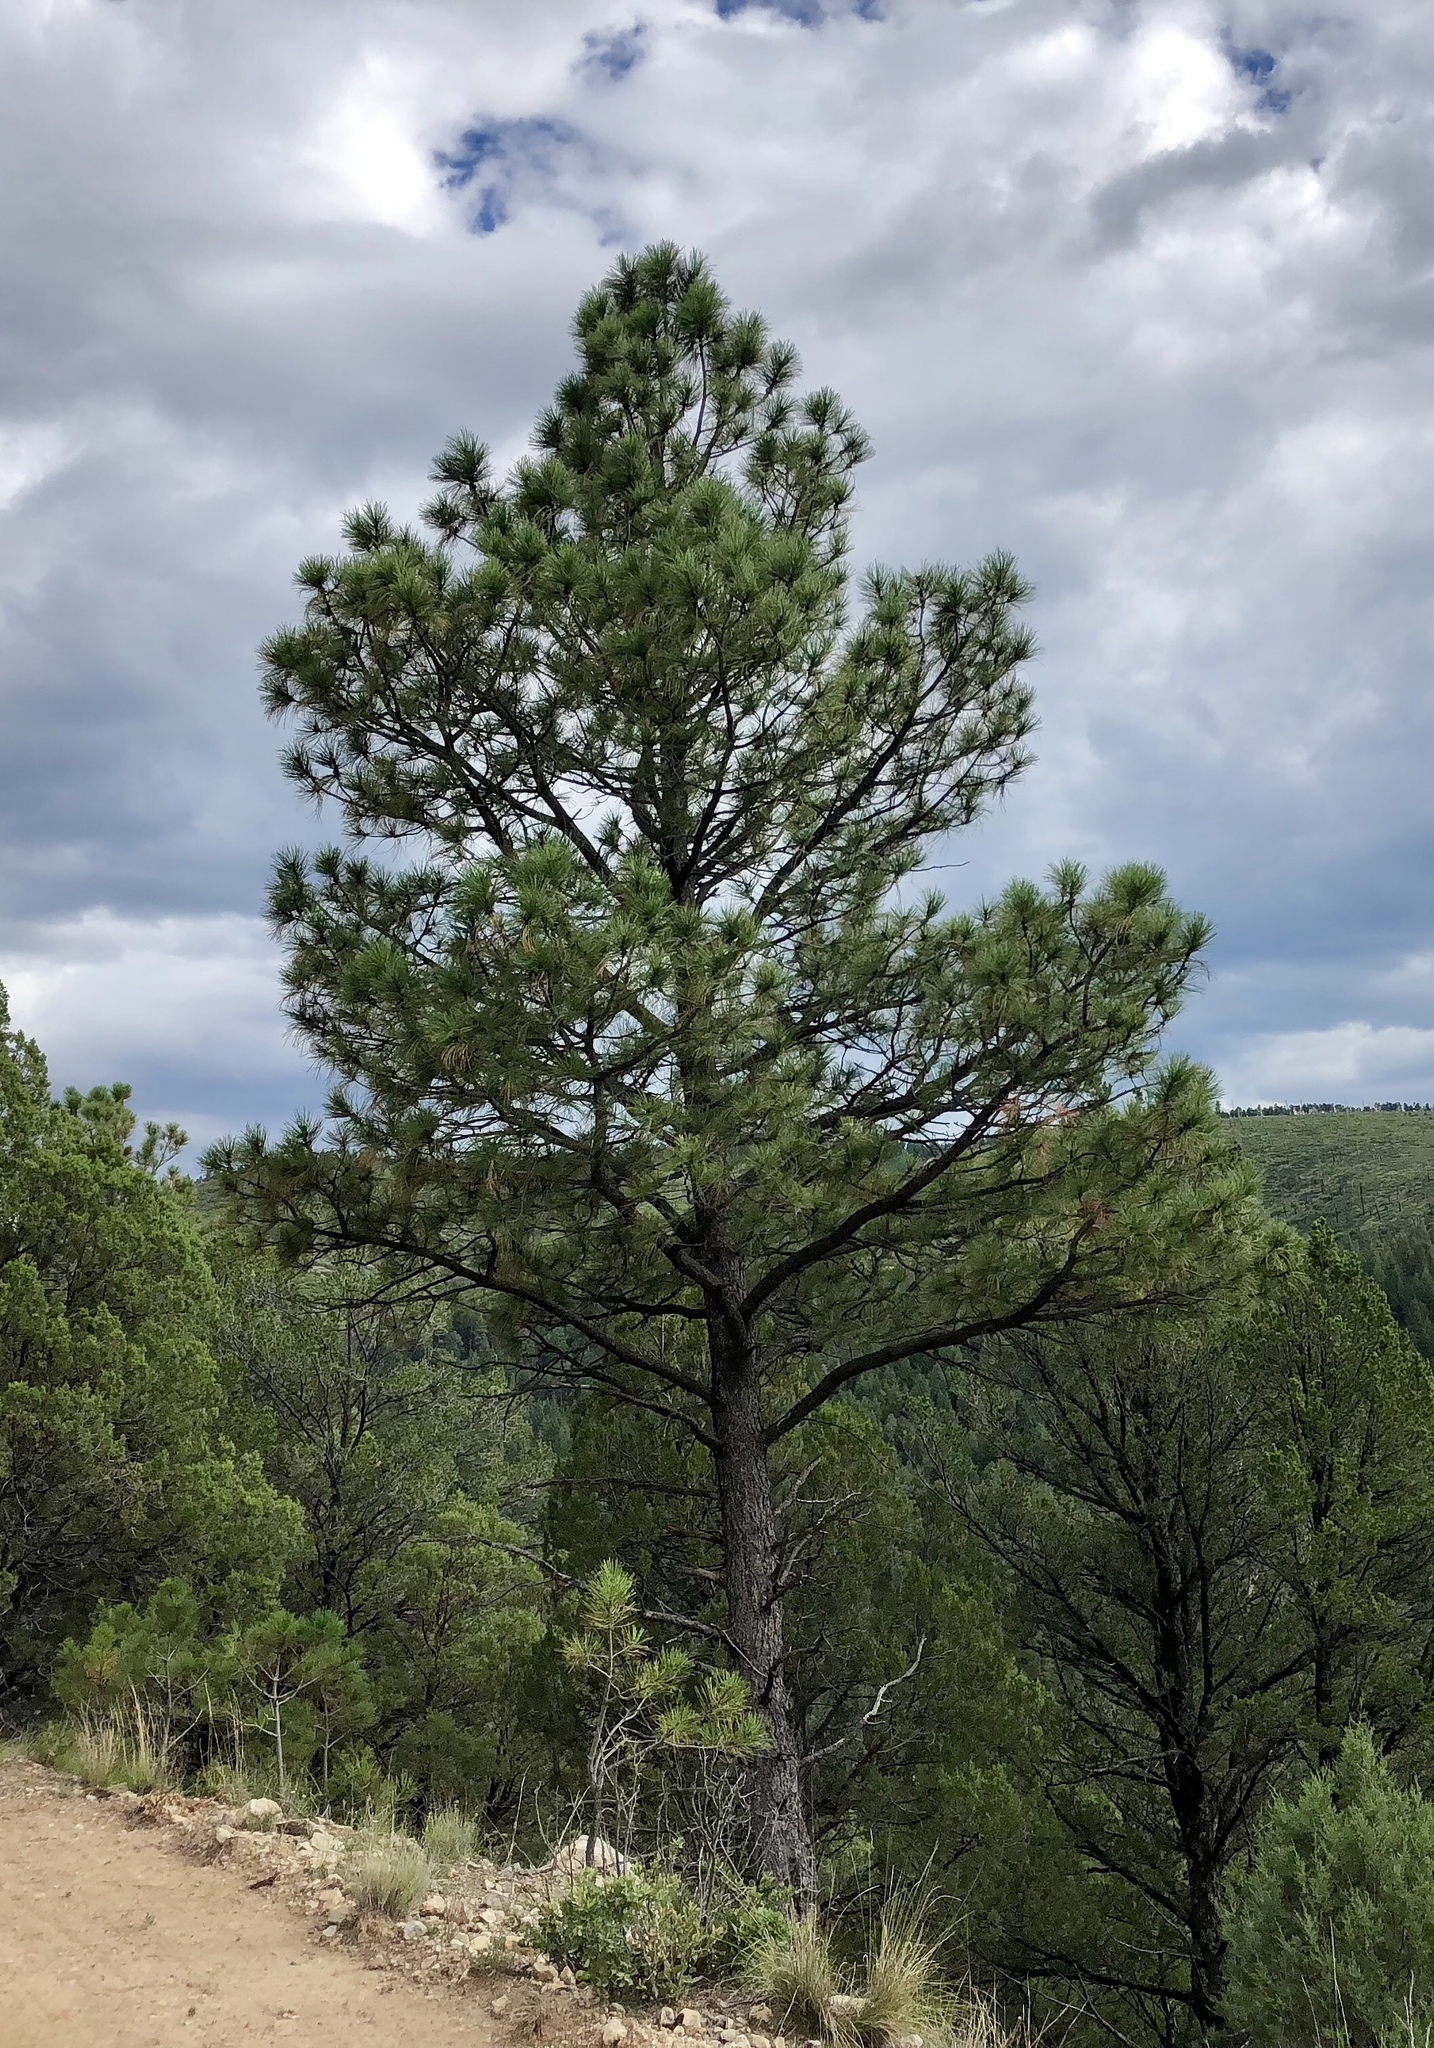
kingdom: Plantae
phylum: Tracheophyta
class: Pinopsida
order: Pinales
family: Pinaceae
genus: Pinus
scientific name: Pinus ponderosa
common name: Western yellow-pine
